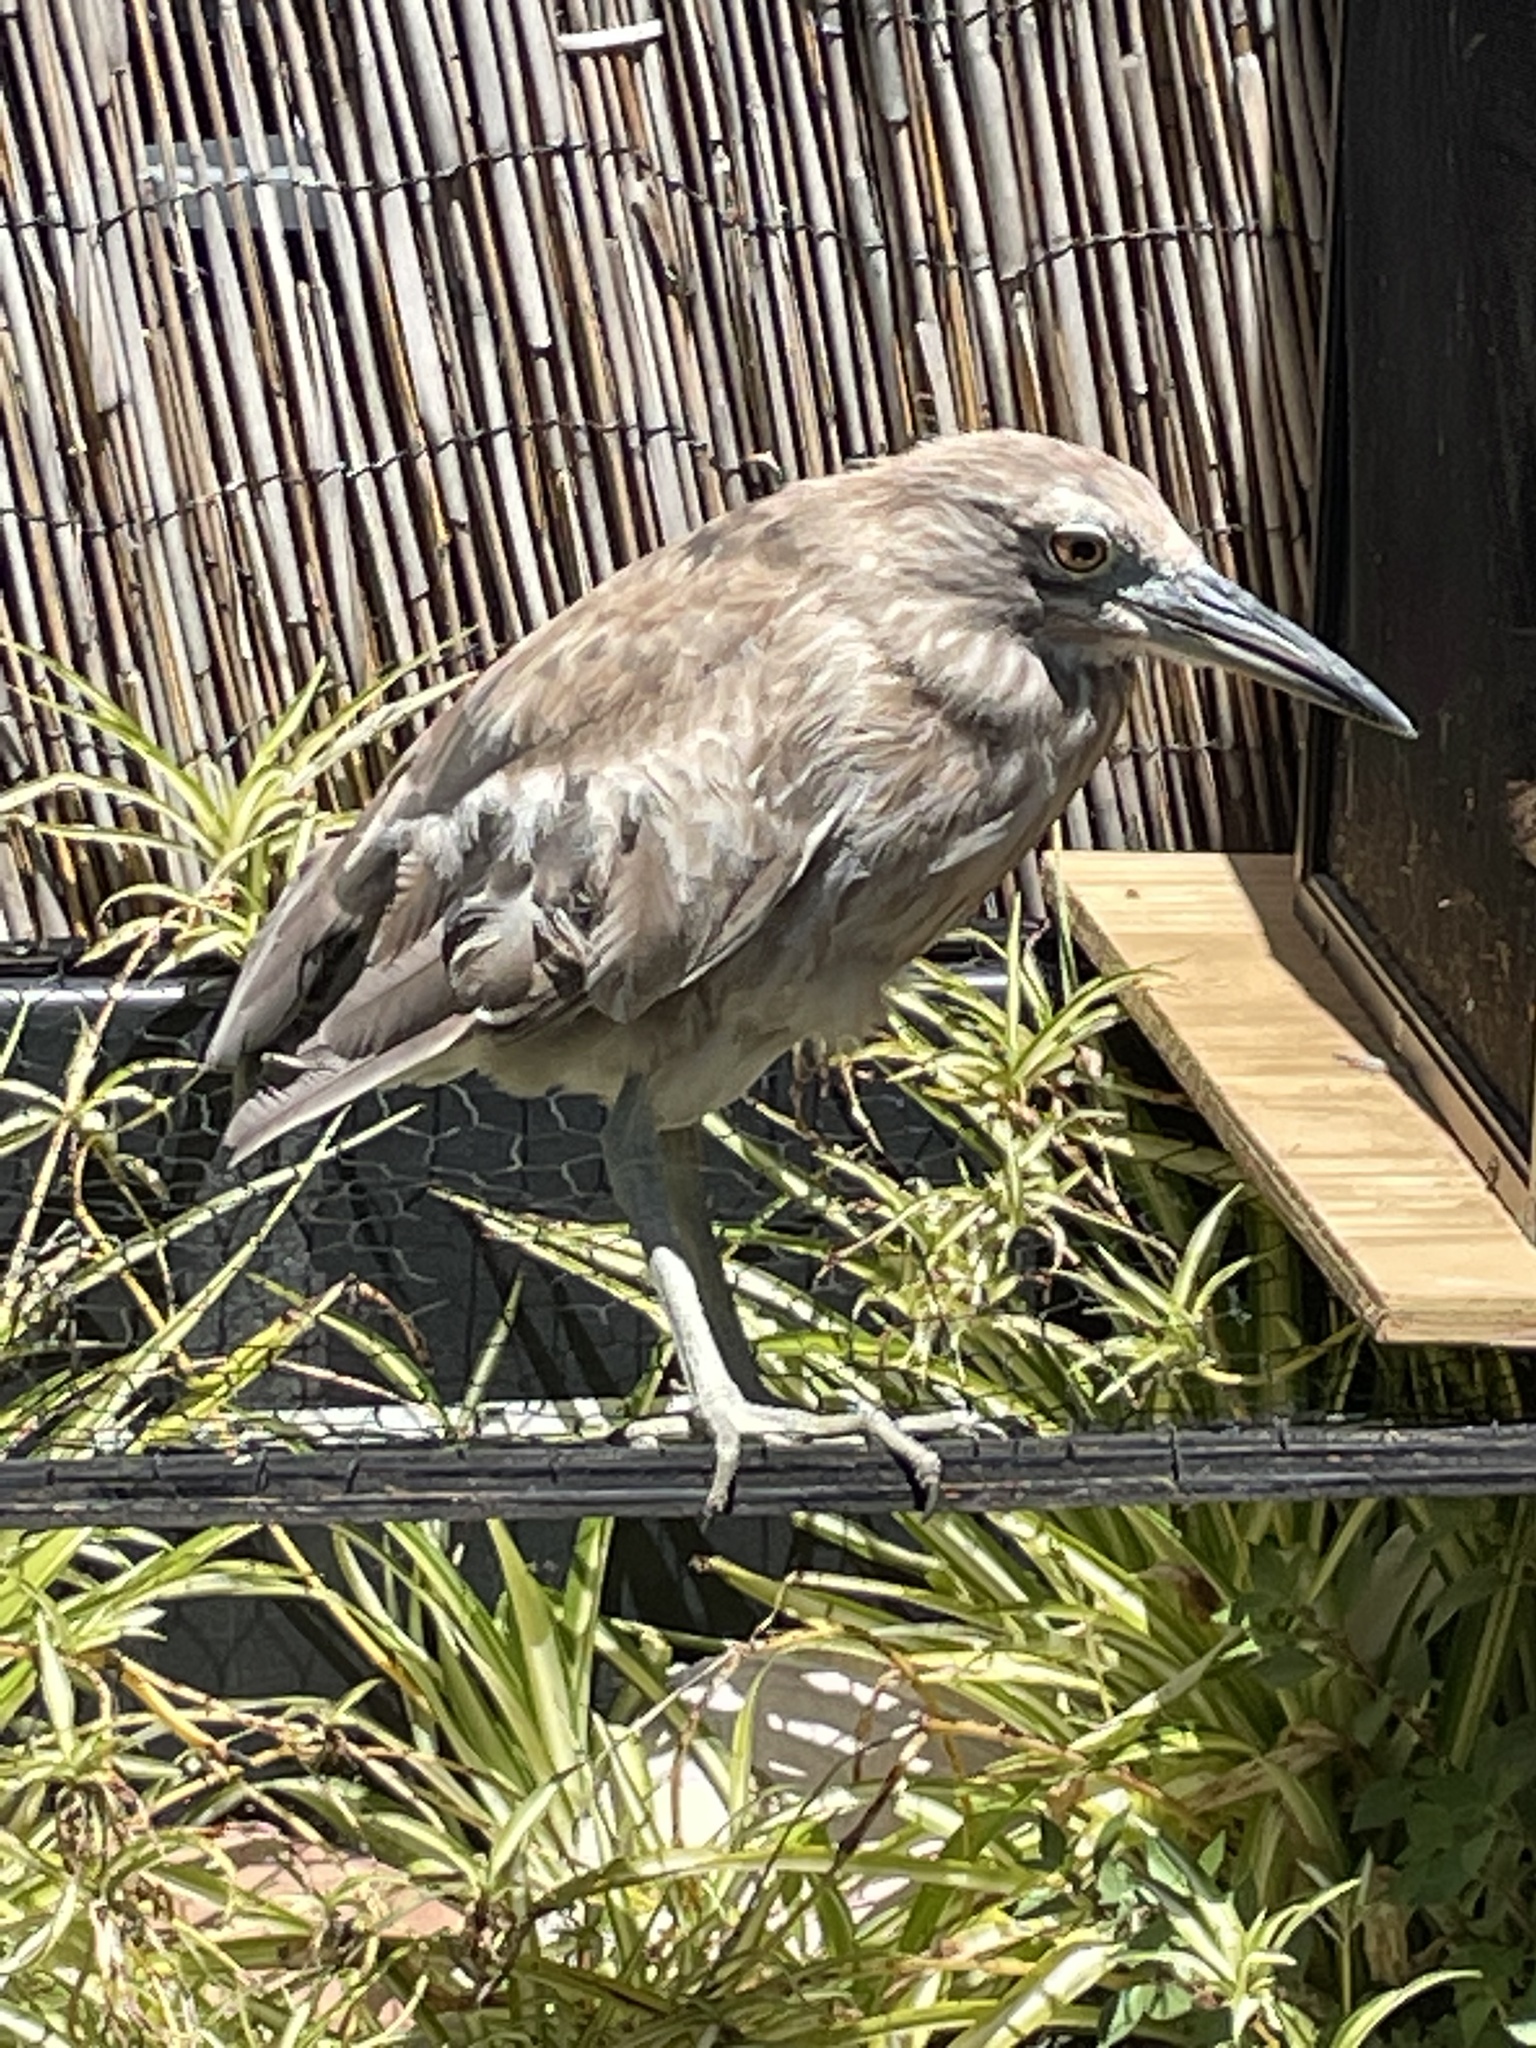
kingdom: Animalia
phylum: Chordata
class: Aves
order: Pelecaniformes
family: Ardeidae
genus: Nycticorax
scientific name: Nycticorax nycticorax
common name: Black-crowned night heron
